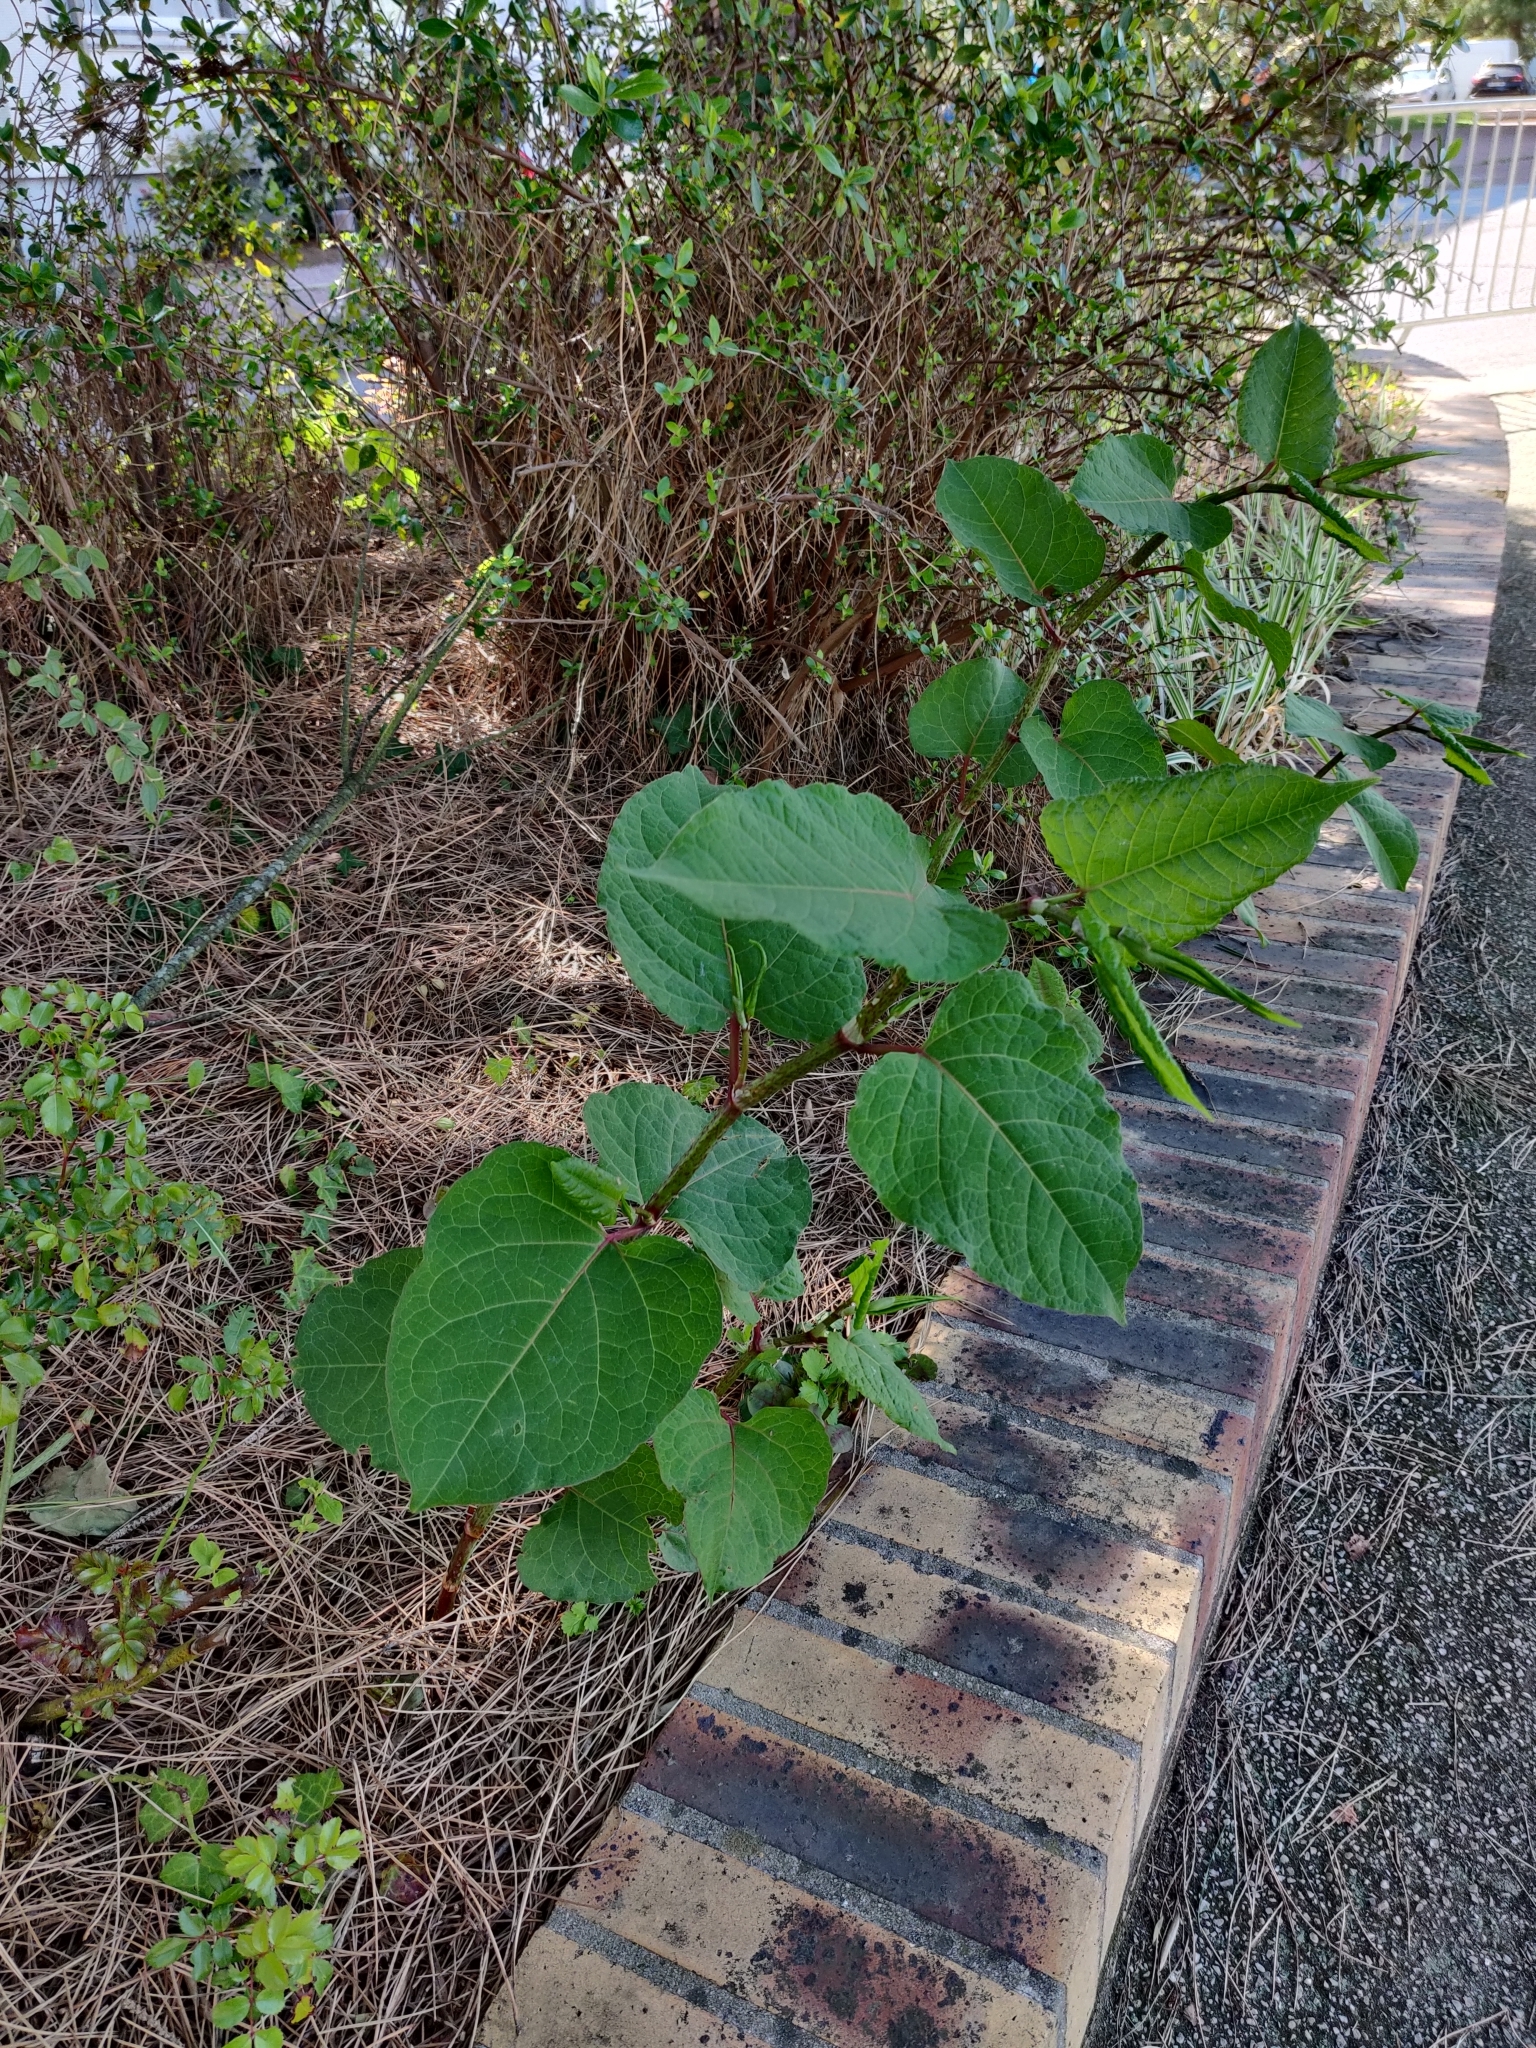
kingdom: Plantae
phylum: Tracheophyta
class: Magnoliopsida
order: Caryophyllales
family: Polygonaceae
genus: Reynoutria
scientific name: Reynoutria japonica
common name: Japanese knotweed
